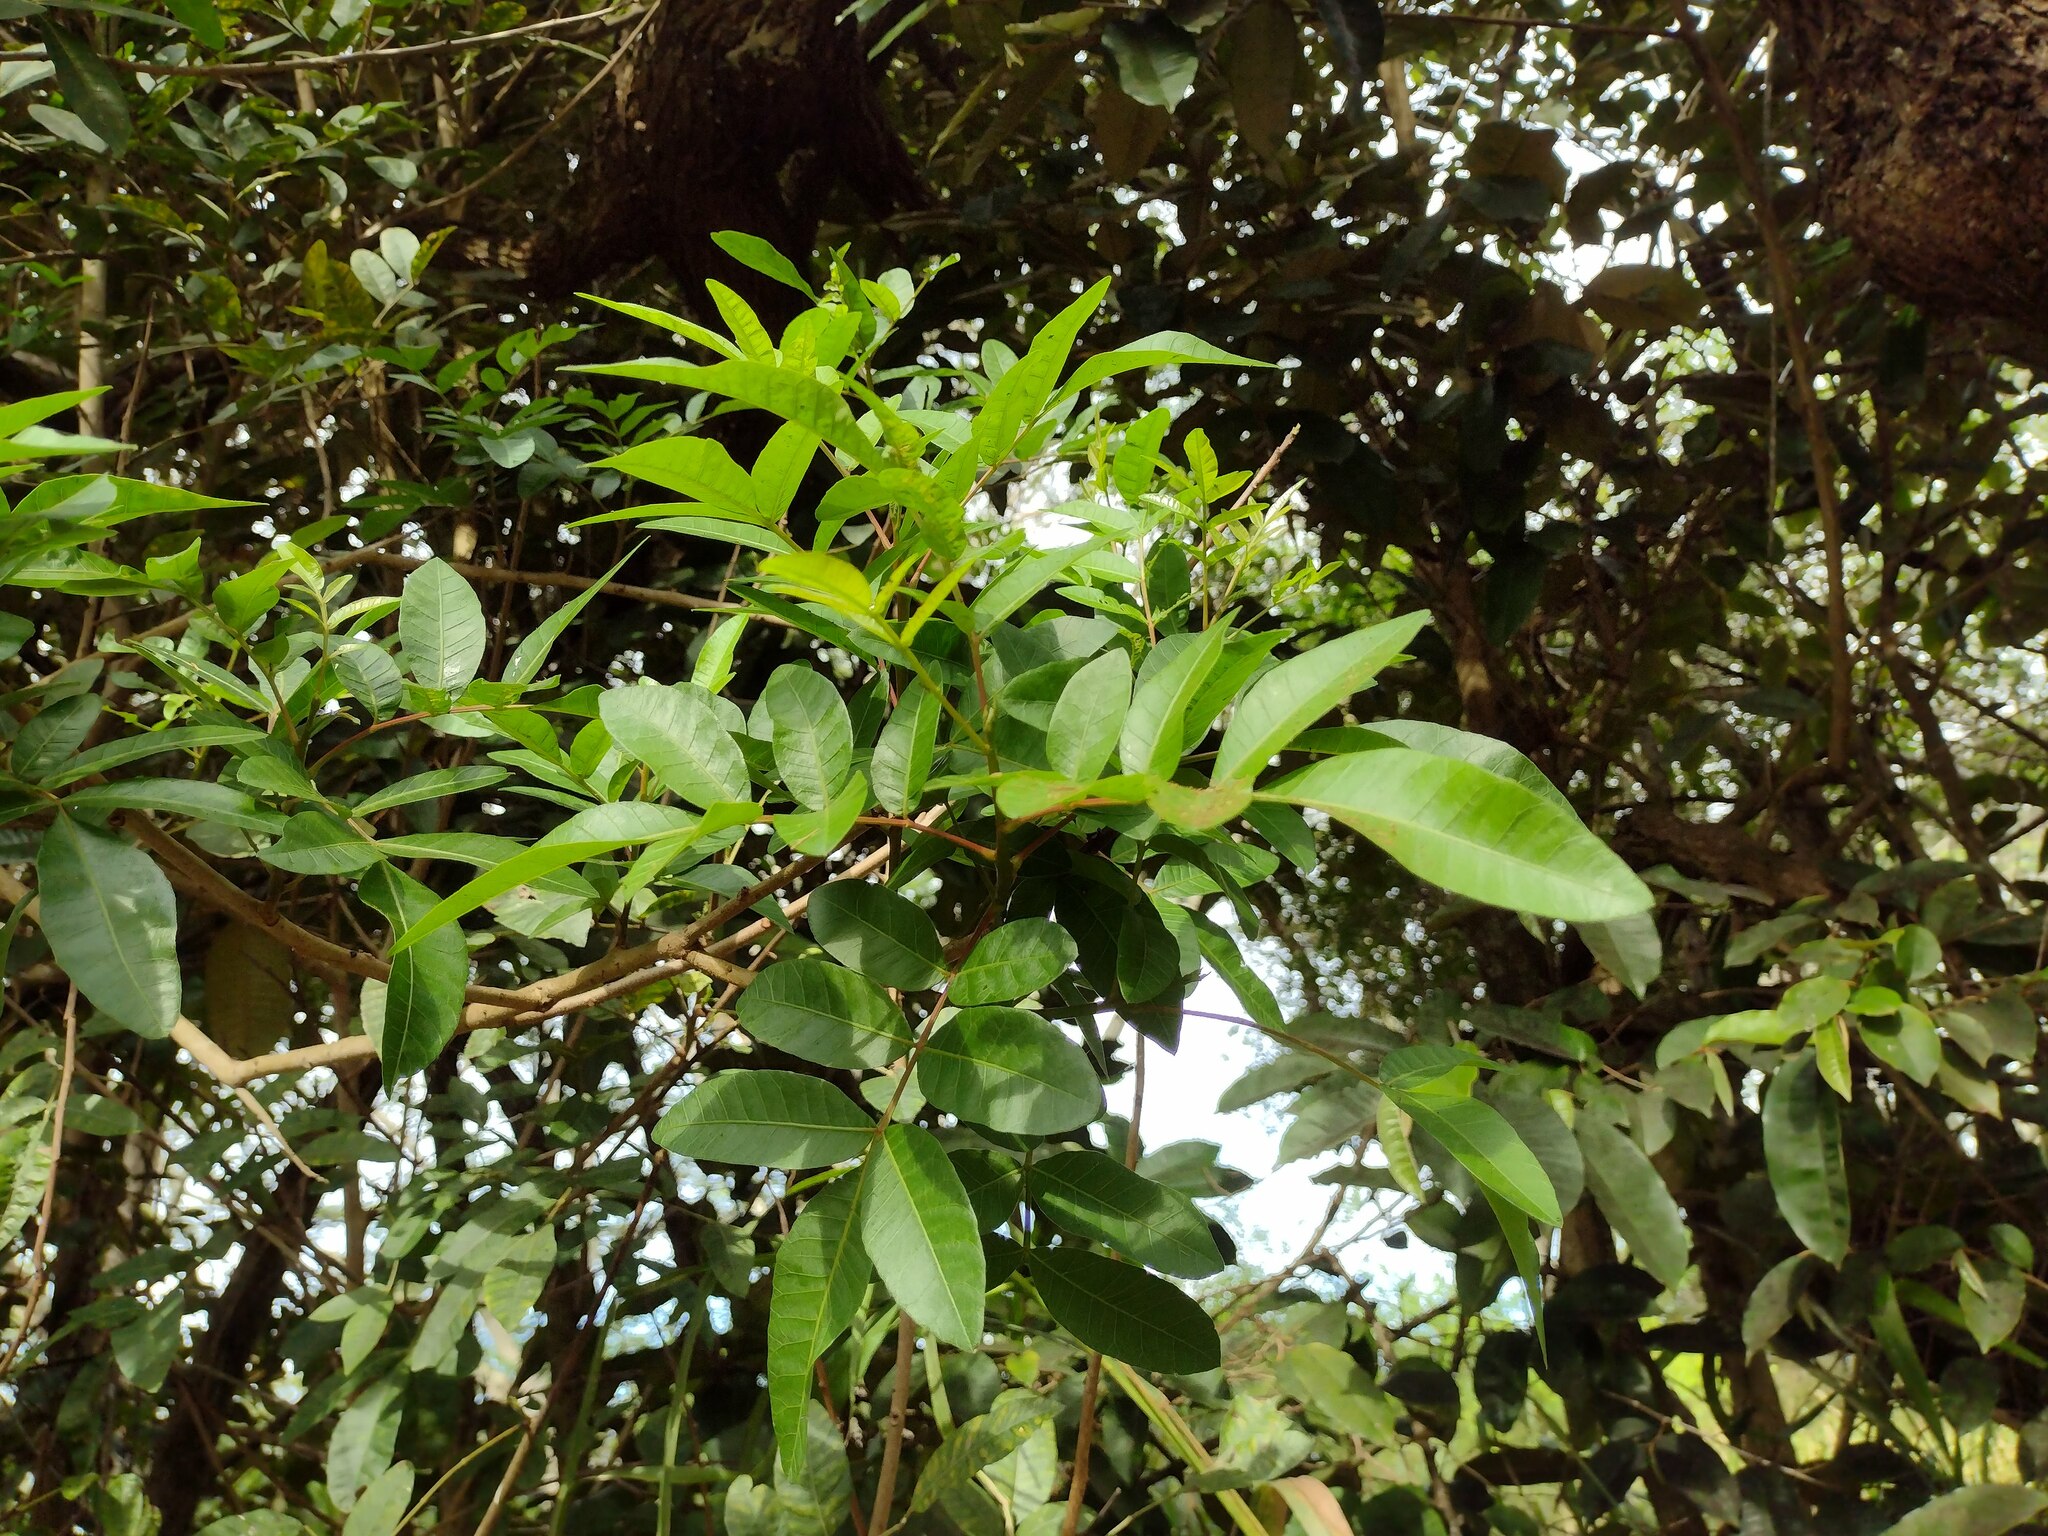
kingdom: Plantae
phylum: Tracheophyta
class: Magnoliopsida
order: Sapindales
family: Anacardiaceae
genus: Schinus
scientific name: Schinus terebinthifolia
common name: Brazilian peppertree
